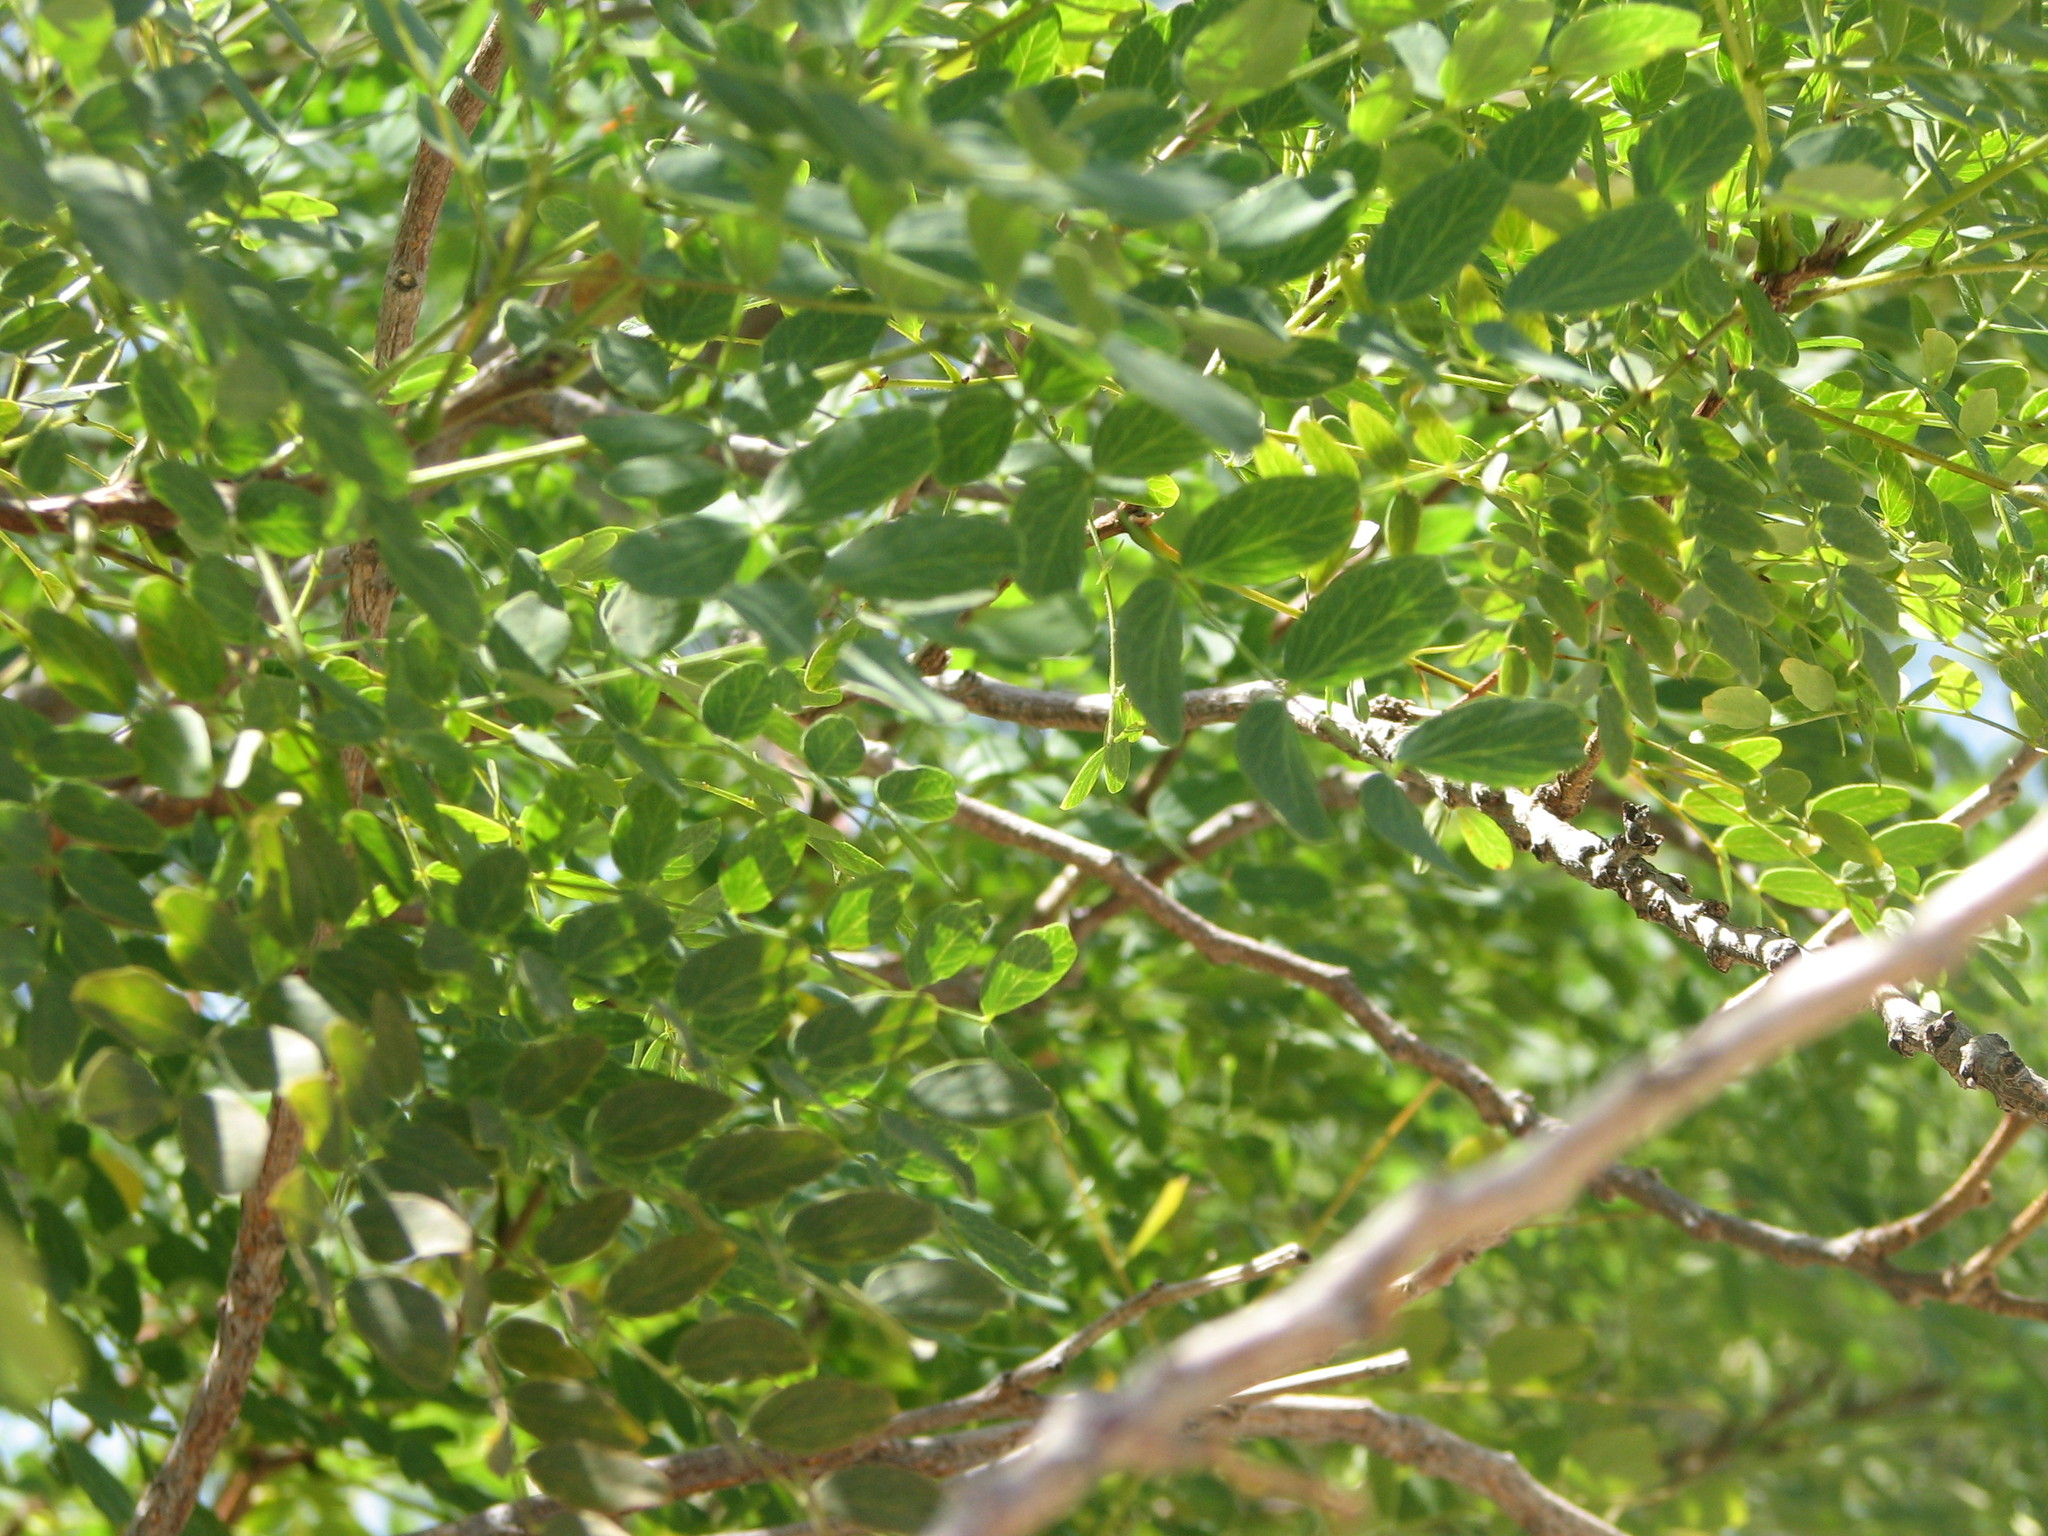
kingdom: Plantae
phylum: Tracheophyta
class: Magnoliopsida
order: Fabales
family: Fabaceae
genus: Leucaena
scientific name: Leucaena retusa
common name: Littleleaf leadtree
